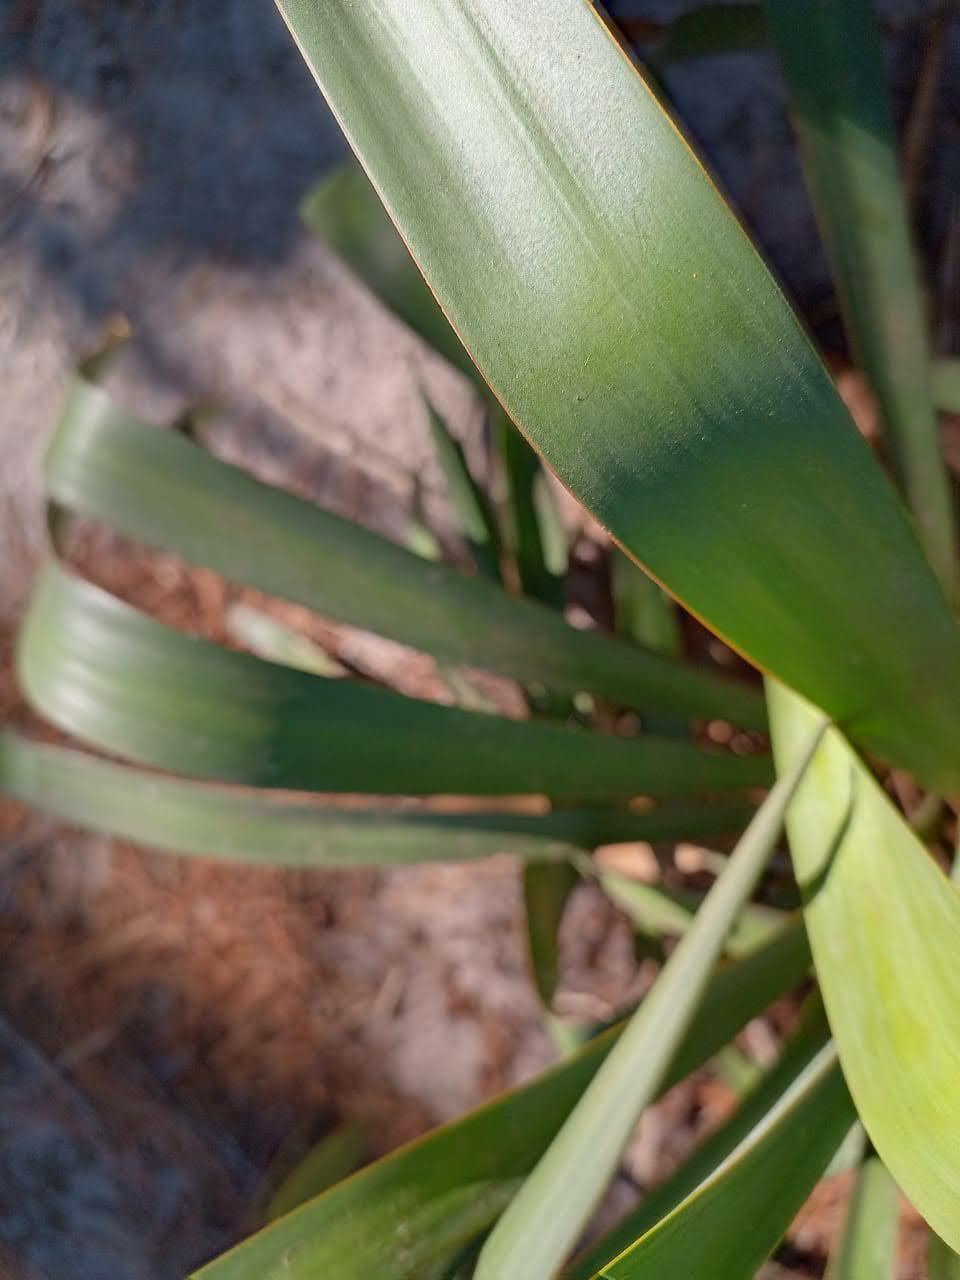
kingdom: Plantae
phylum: Tracheophyta
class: Liliopsida
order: Asparagales
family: Asparagaceae
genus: Yucca
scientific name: Yucca gloriosa
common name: Spanish-dagger
